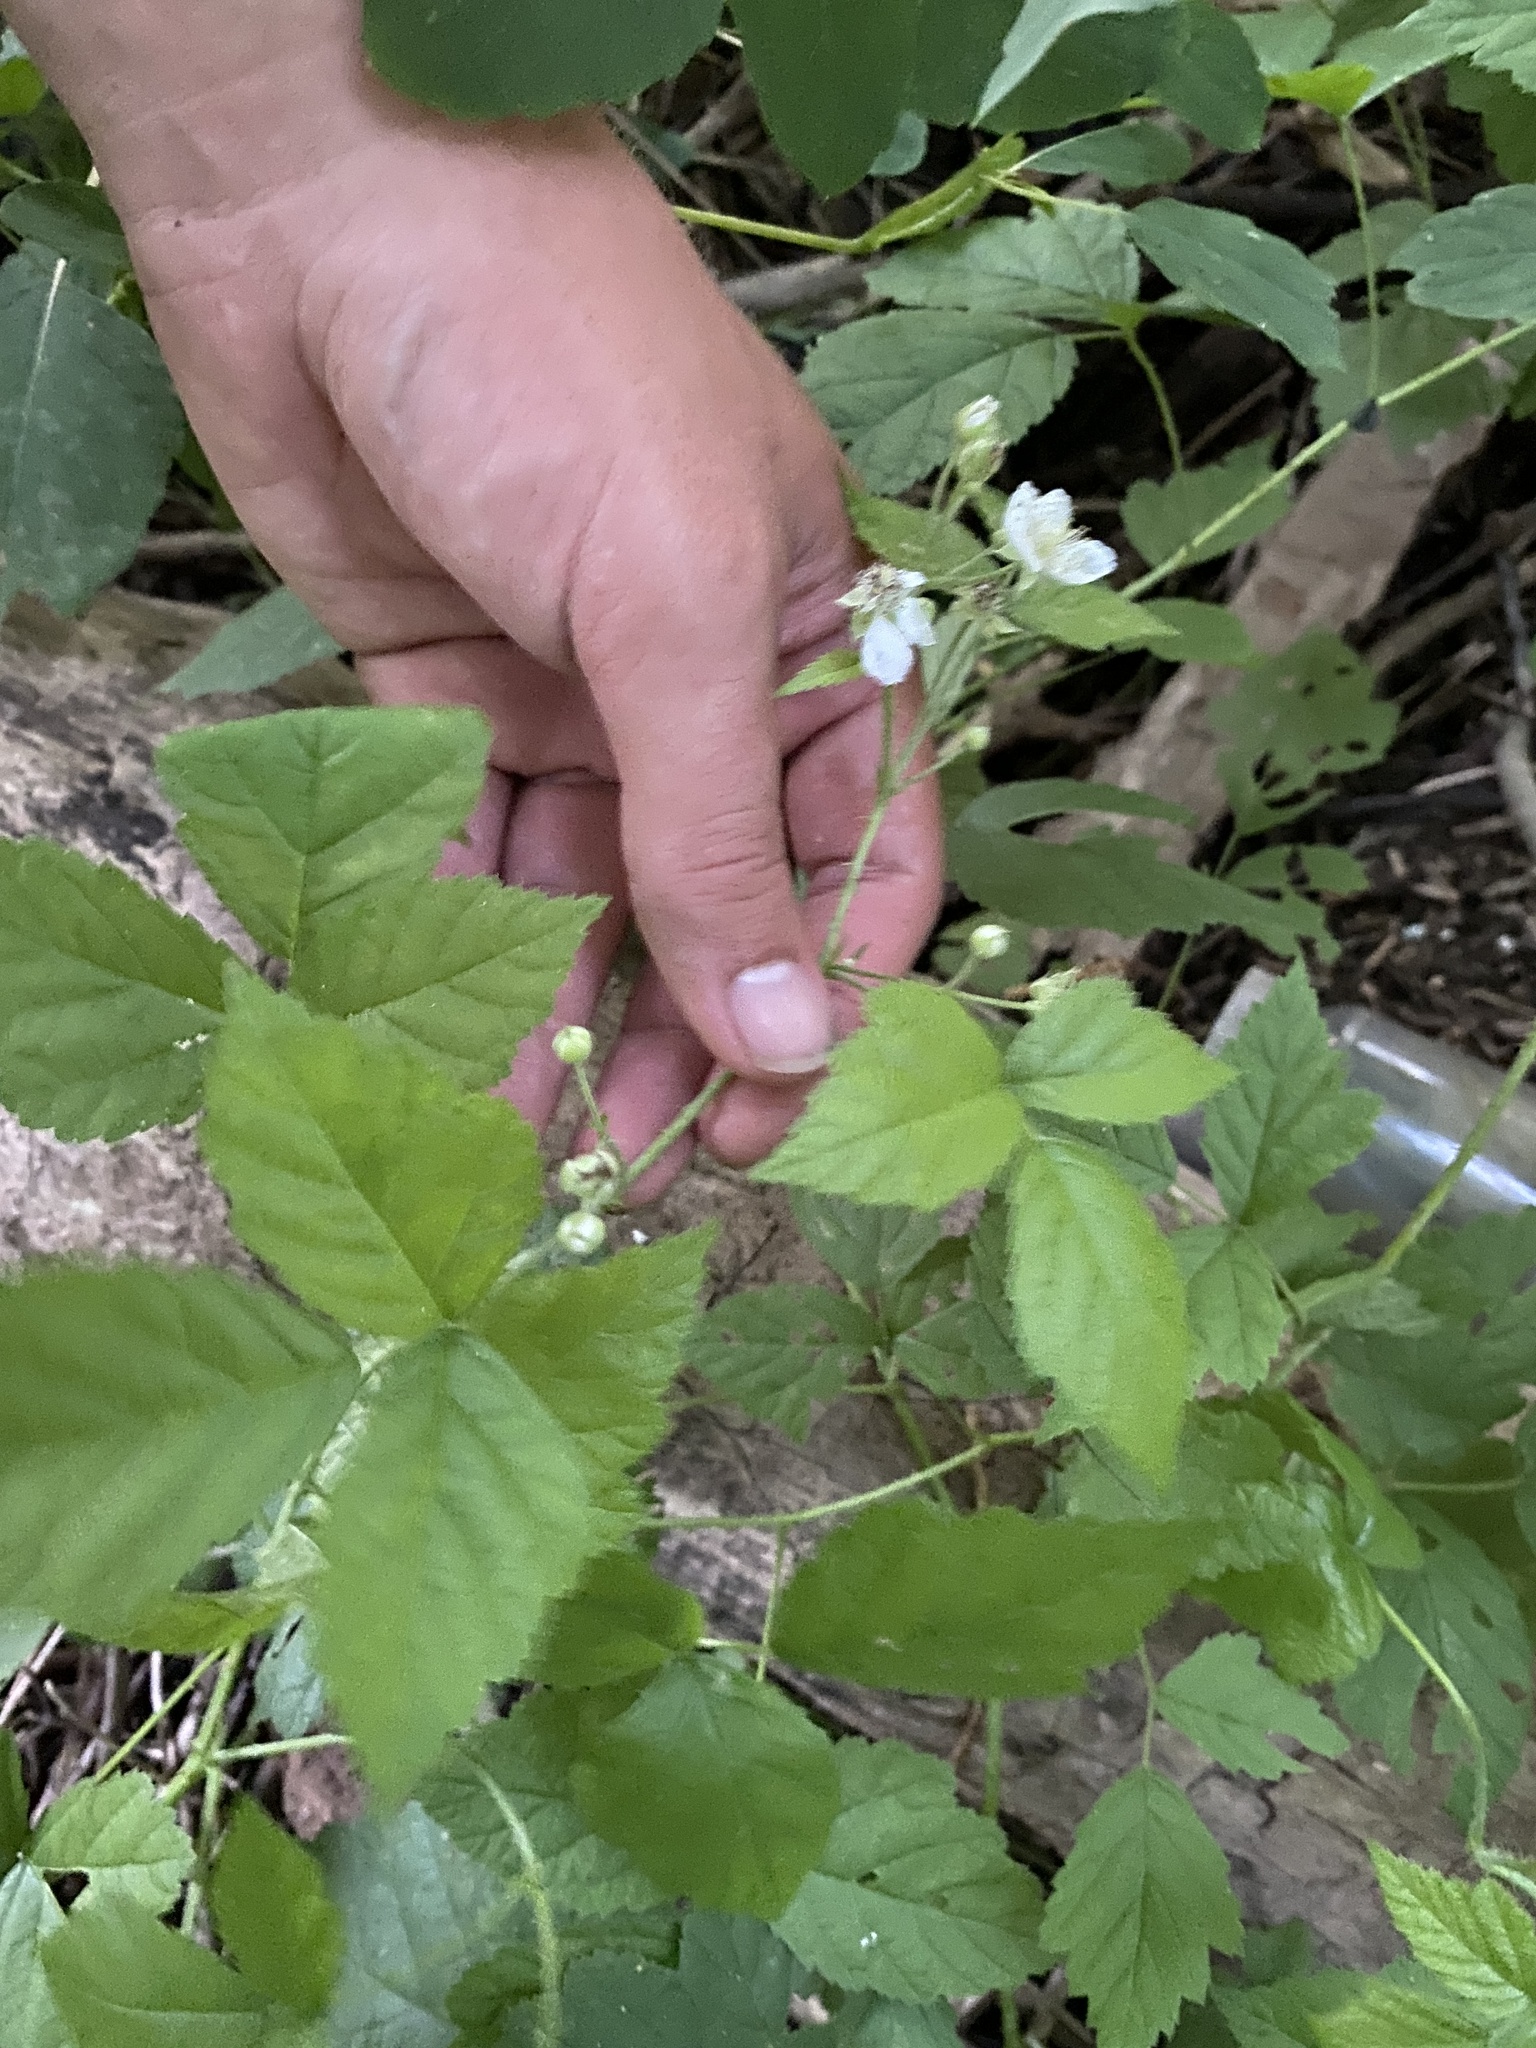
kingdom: Plantae
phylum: Tracheophyta
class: Magnoliopsida
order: Rosales
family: Rosaceae
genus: Rubus
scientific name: Rubus caesius
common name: Dewberry
